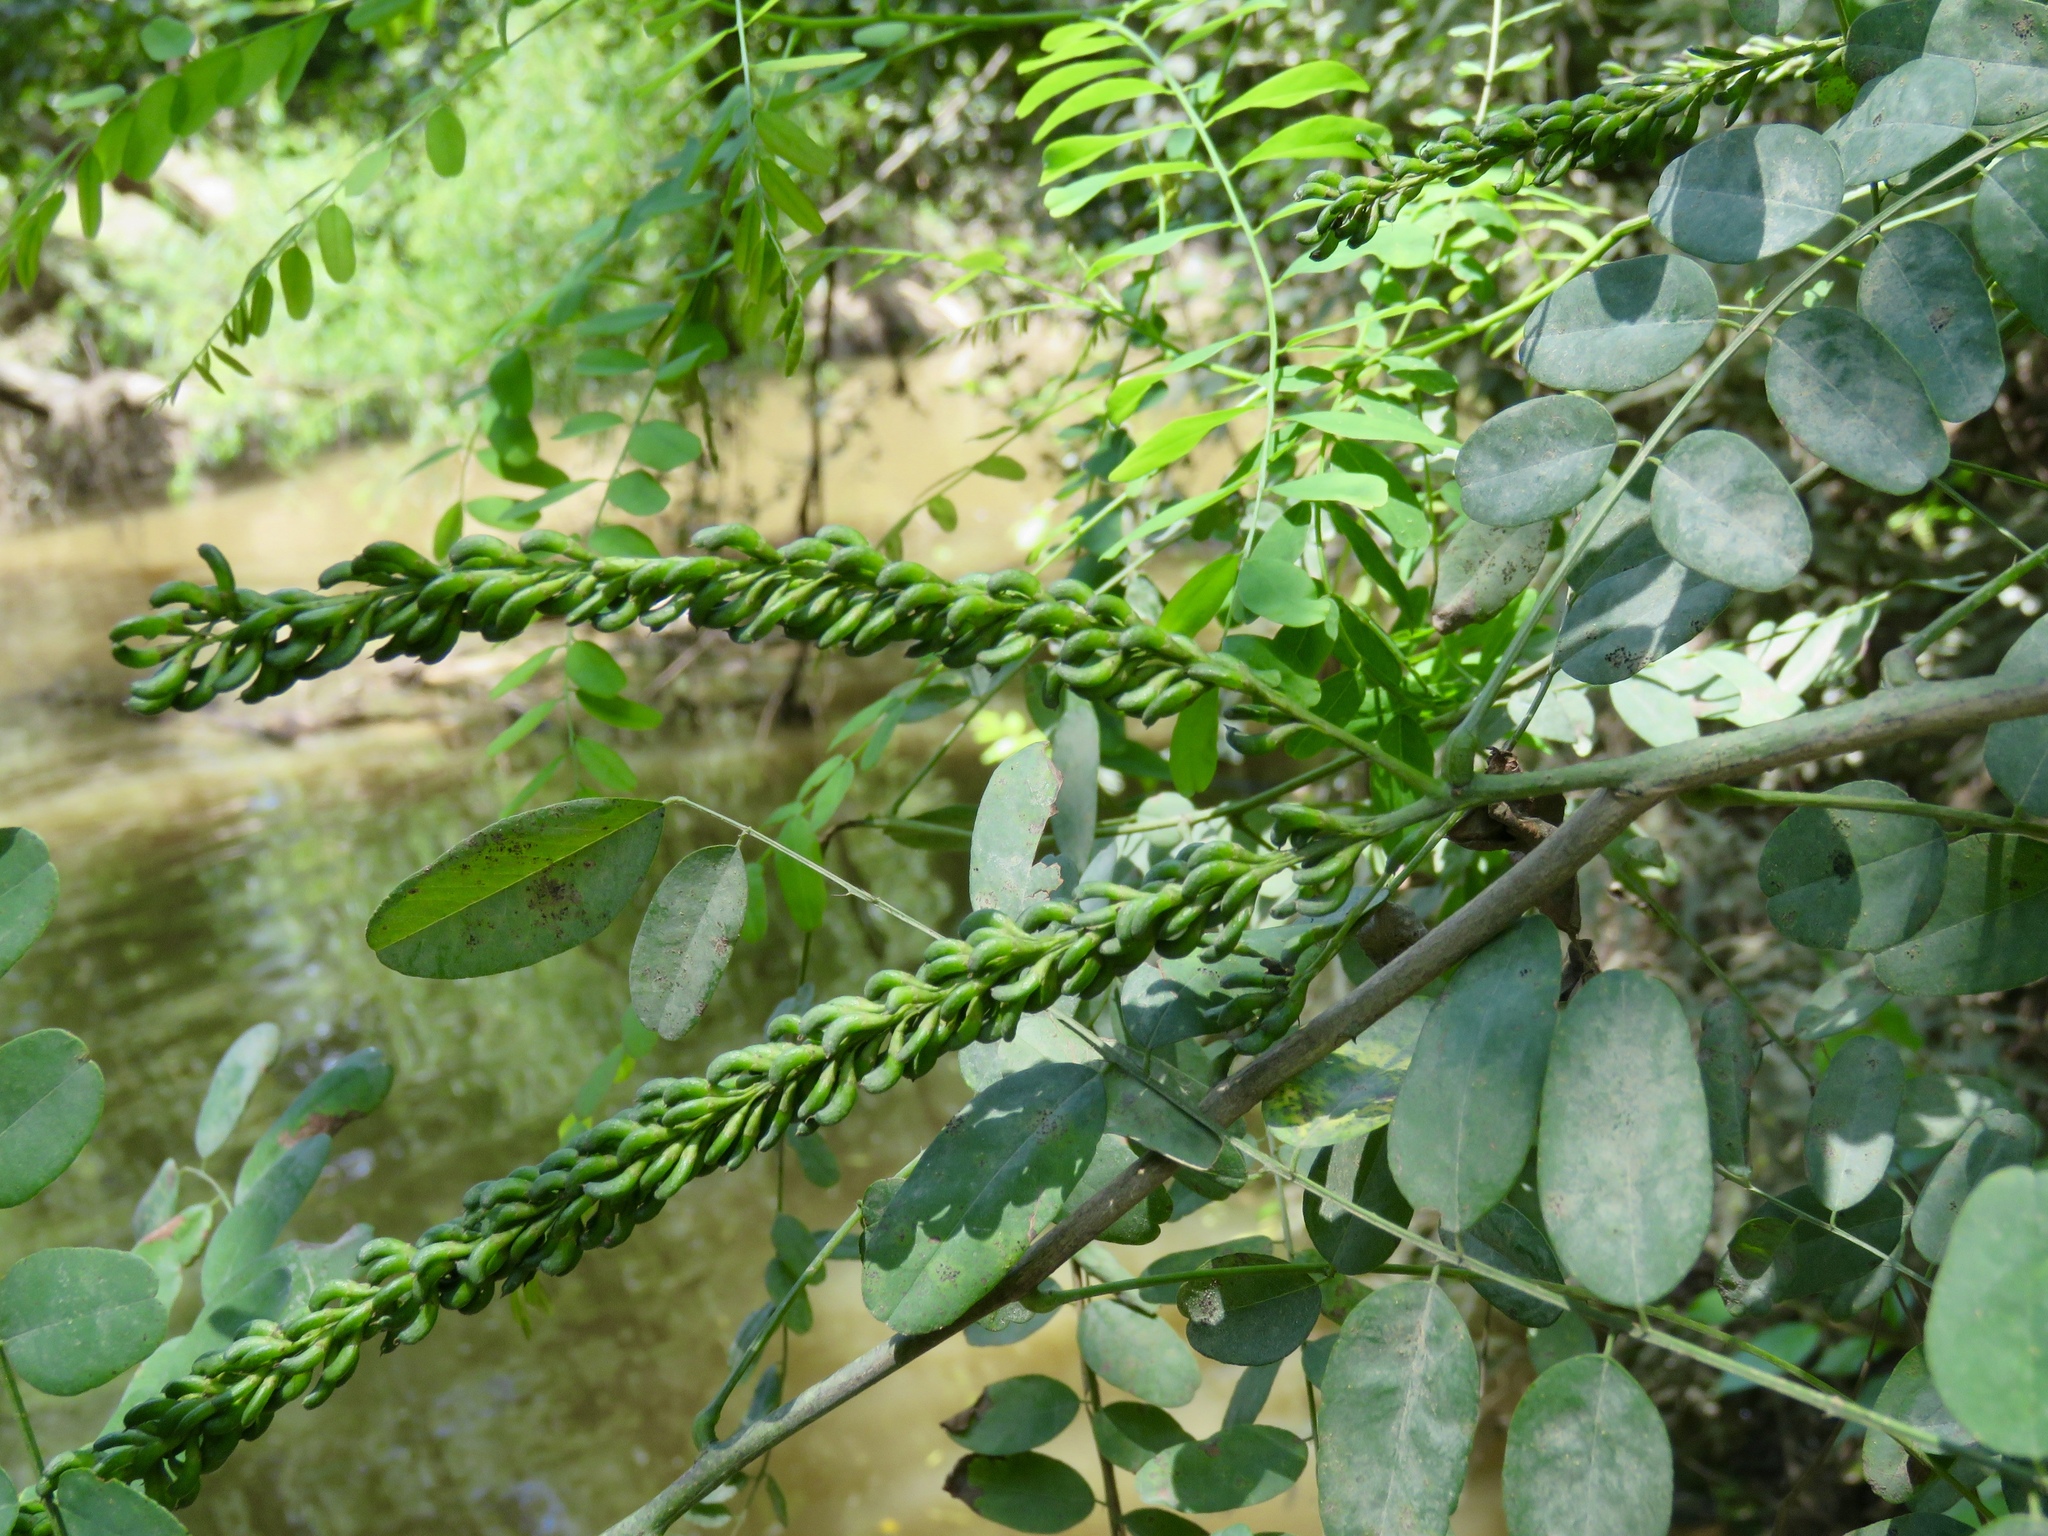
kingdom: Plantae
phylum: Tracheophyta
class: Magnoliopsida
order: Fabales
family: Fabaceae
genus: Amorpha
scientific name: Amorpha fruticosa
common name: False indigo
